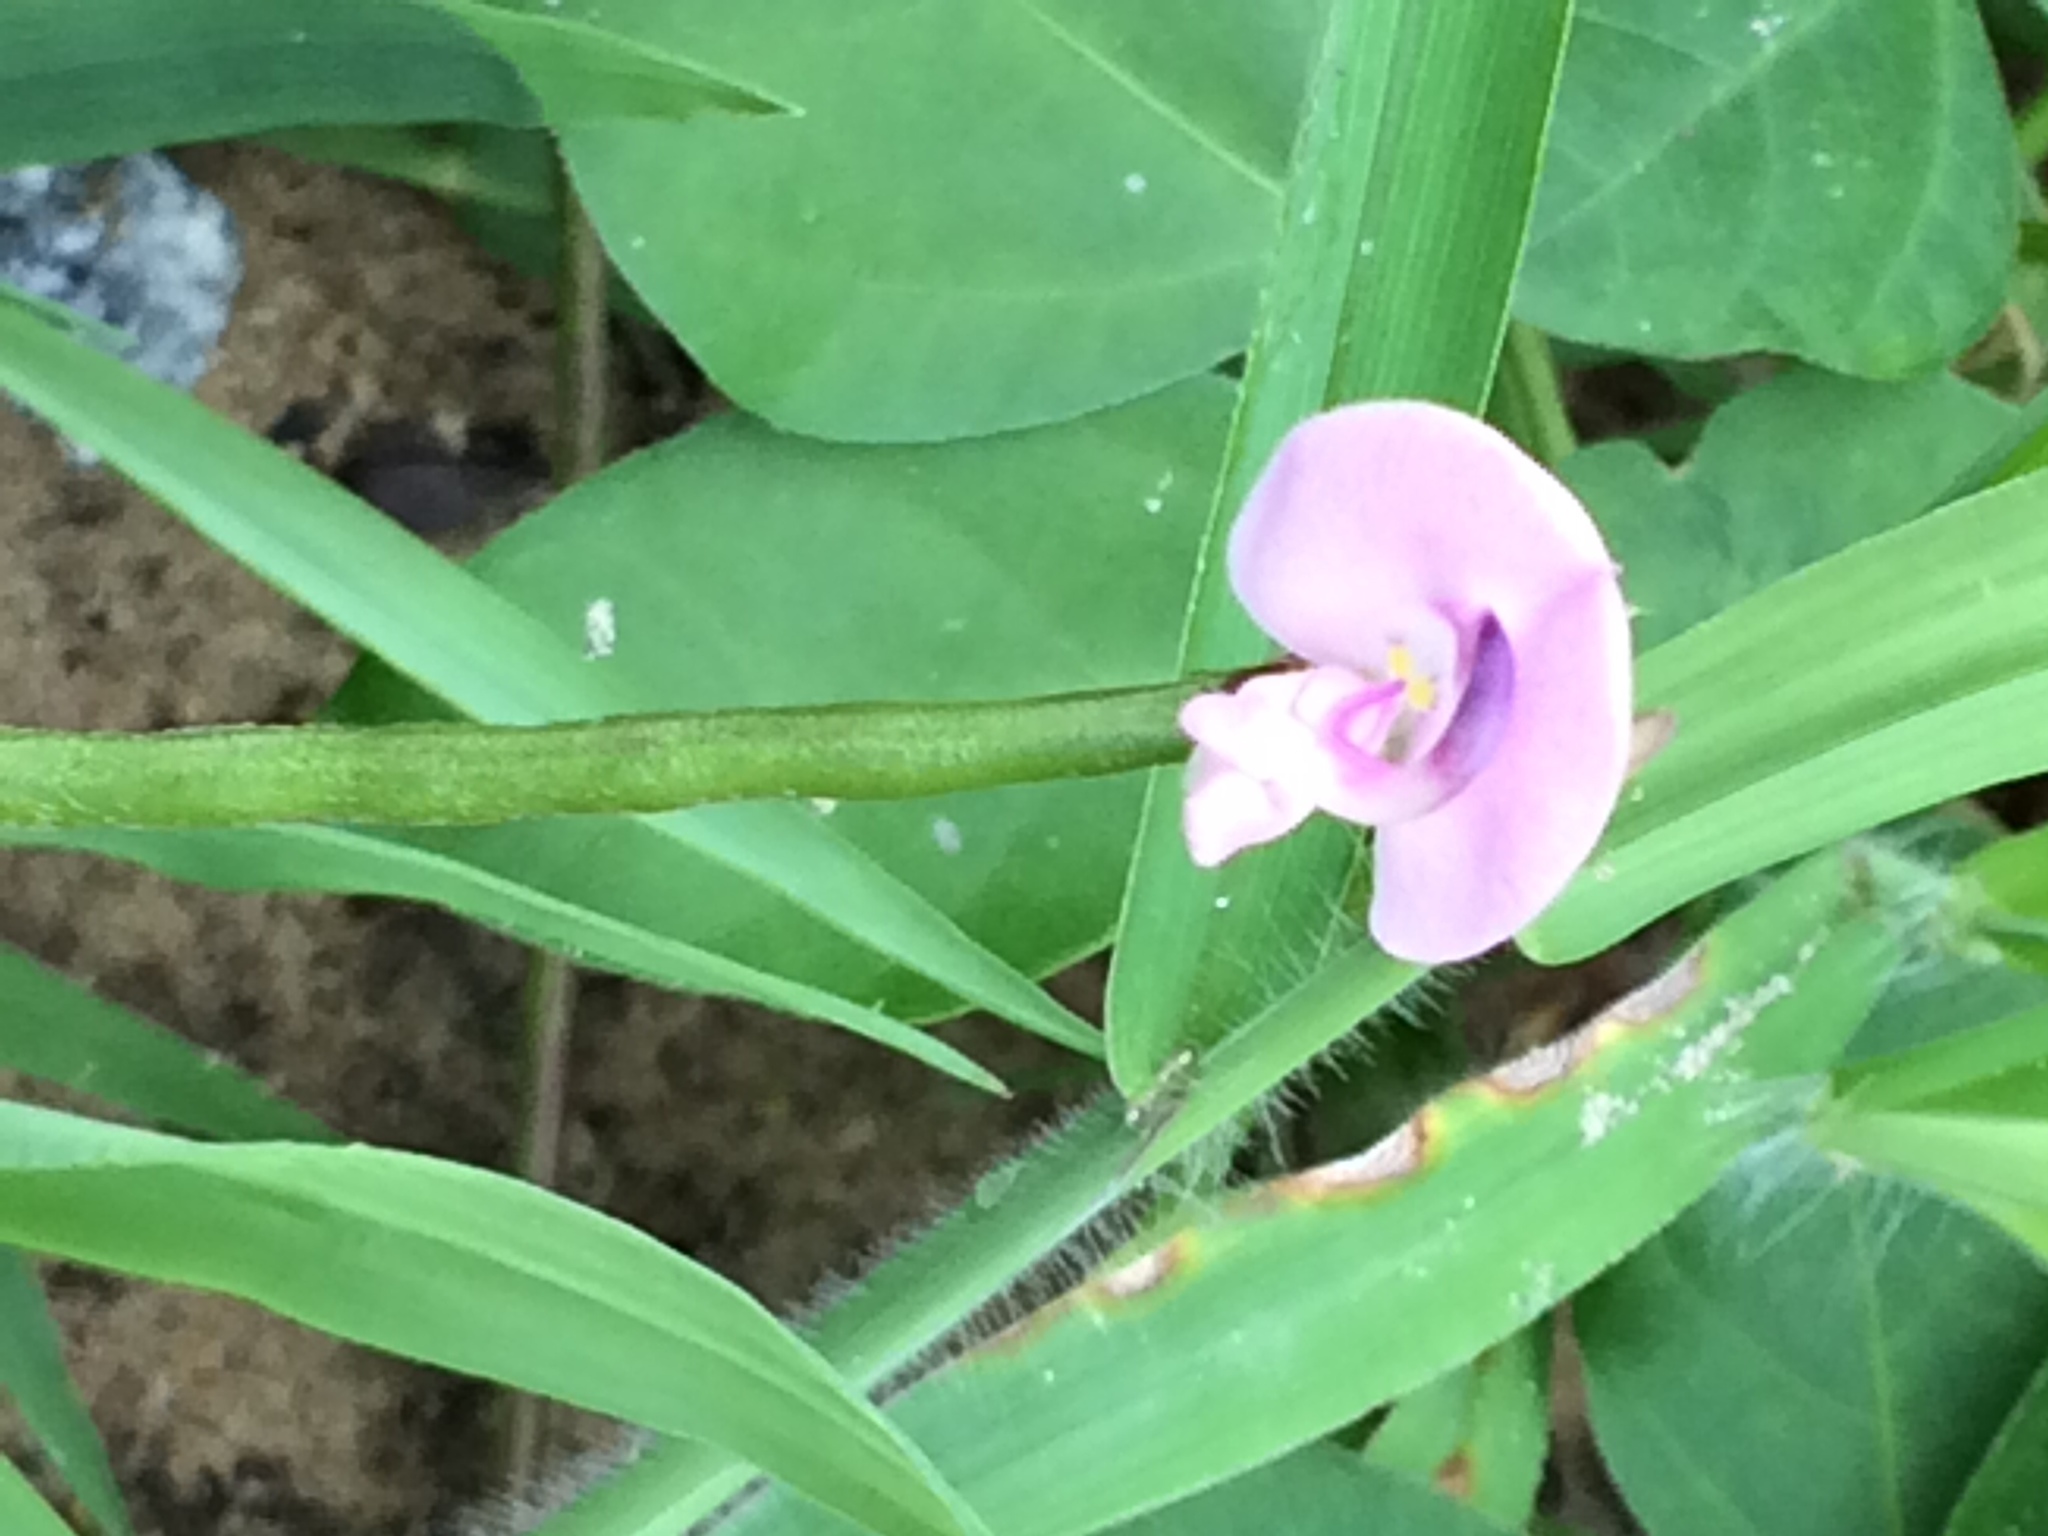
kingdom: Plantae
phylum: Tracheophyta
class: Magnoliopsida
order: Fabales
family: Fabaceae
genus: Strophostyles
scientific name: Strophostyles helvola
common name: Trailing wild bean
